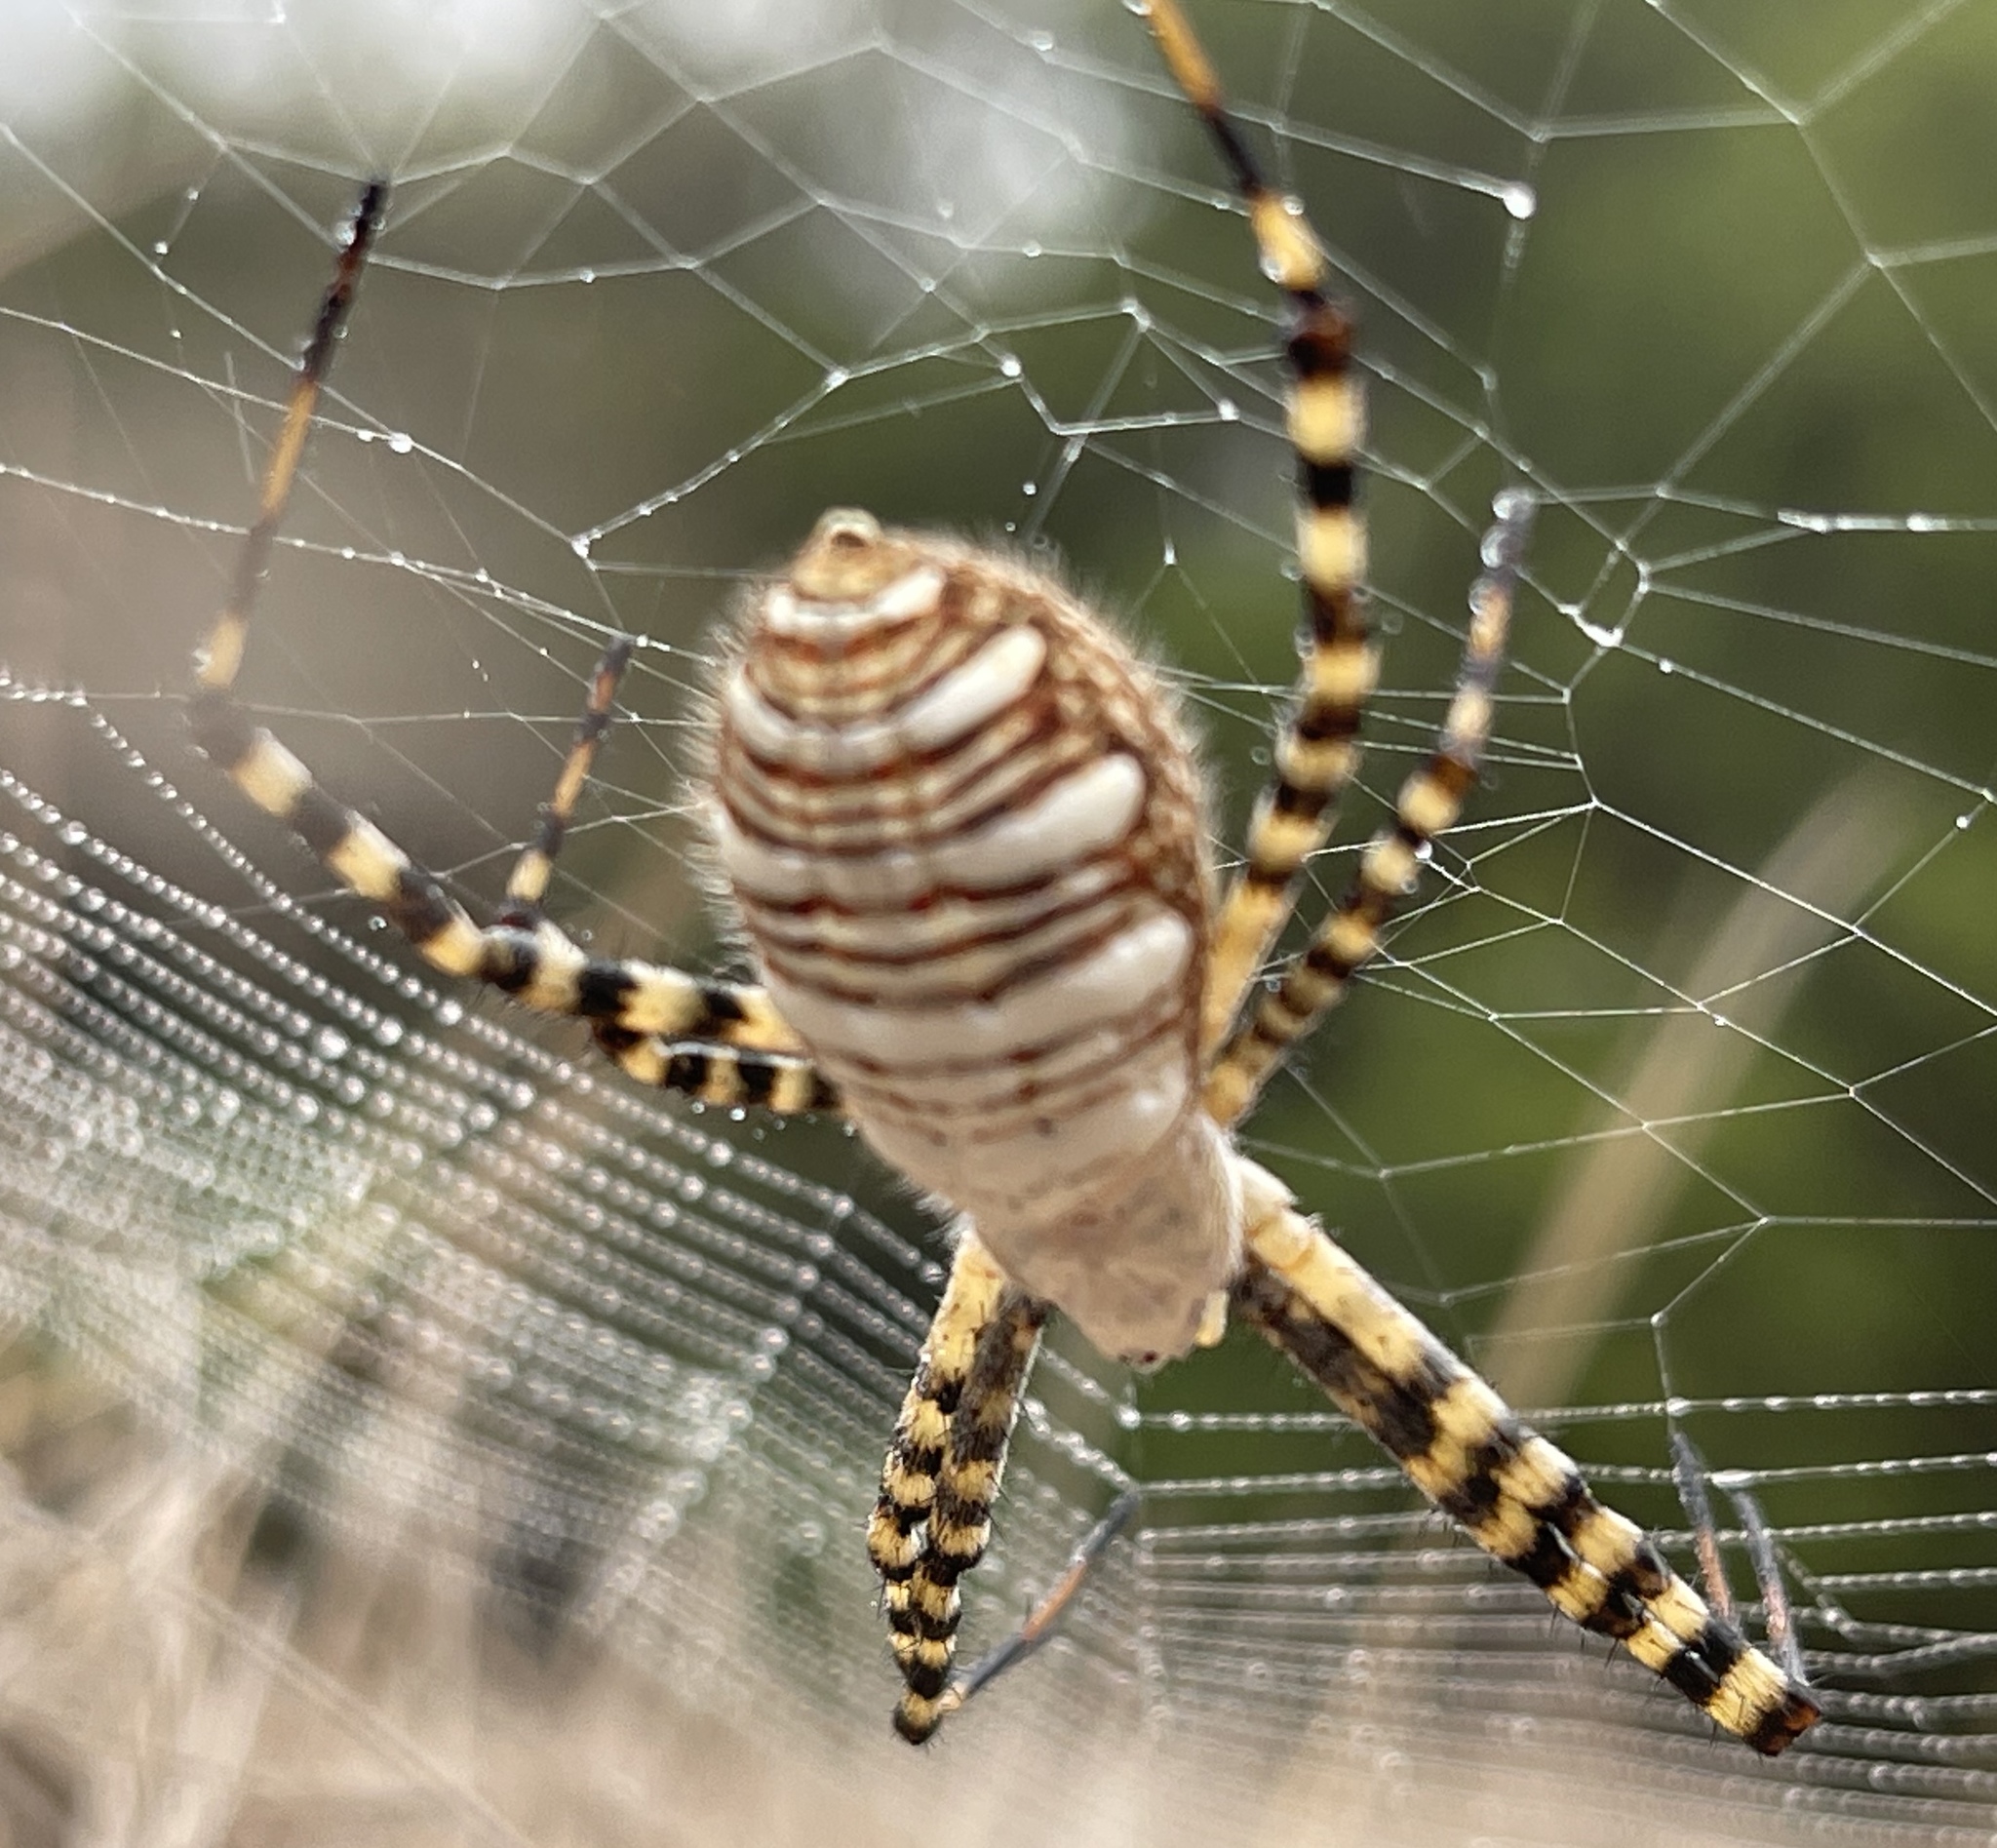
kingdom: Animalia
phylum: Arthropoda
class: Arachnida
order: Araneae
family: Araneidae
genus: Argiope
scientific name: Argiope trifasciata
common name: Banded garden spider
